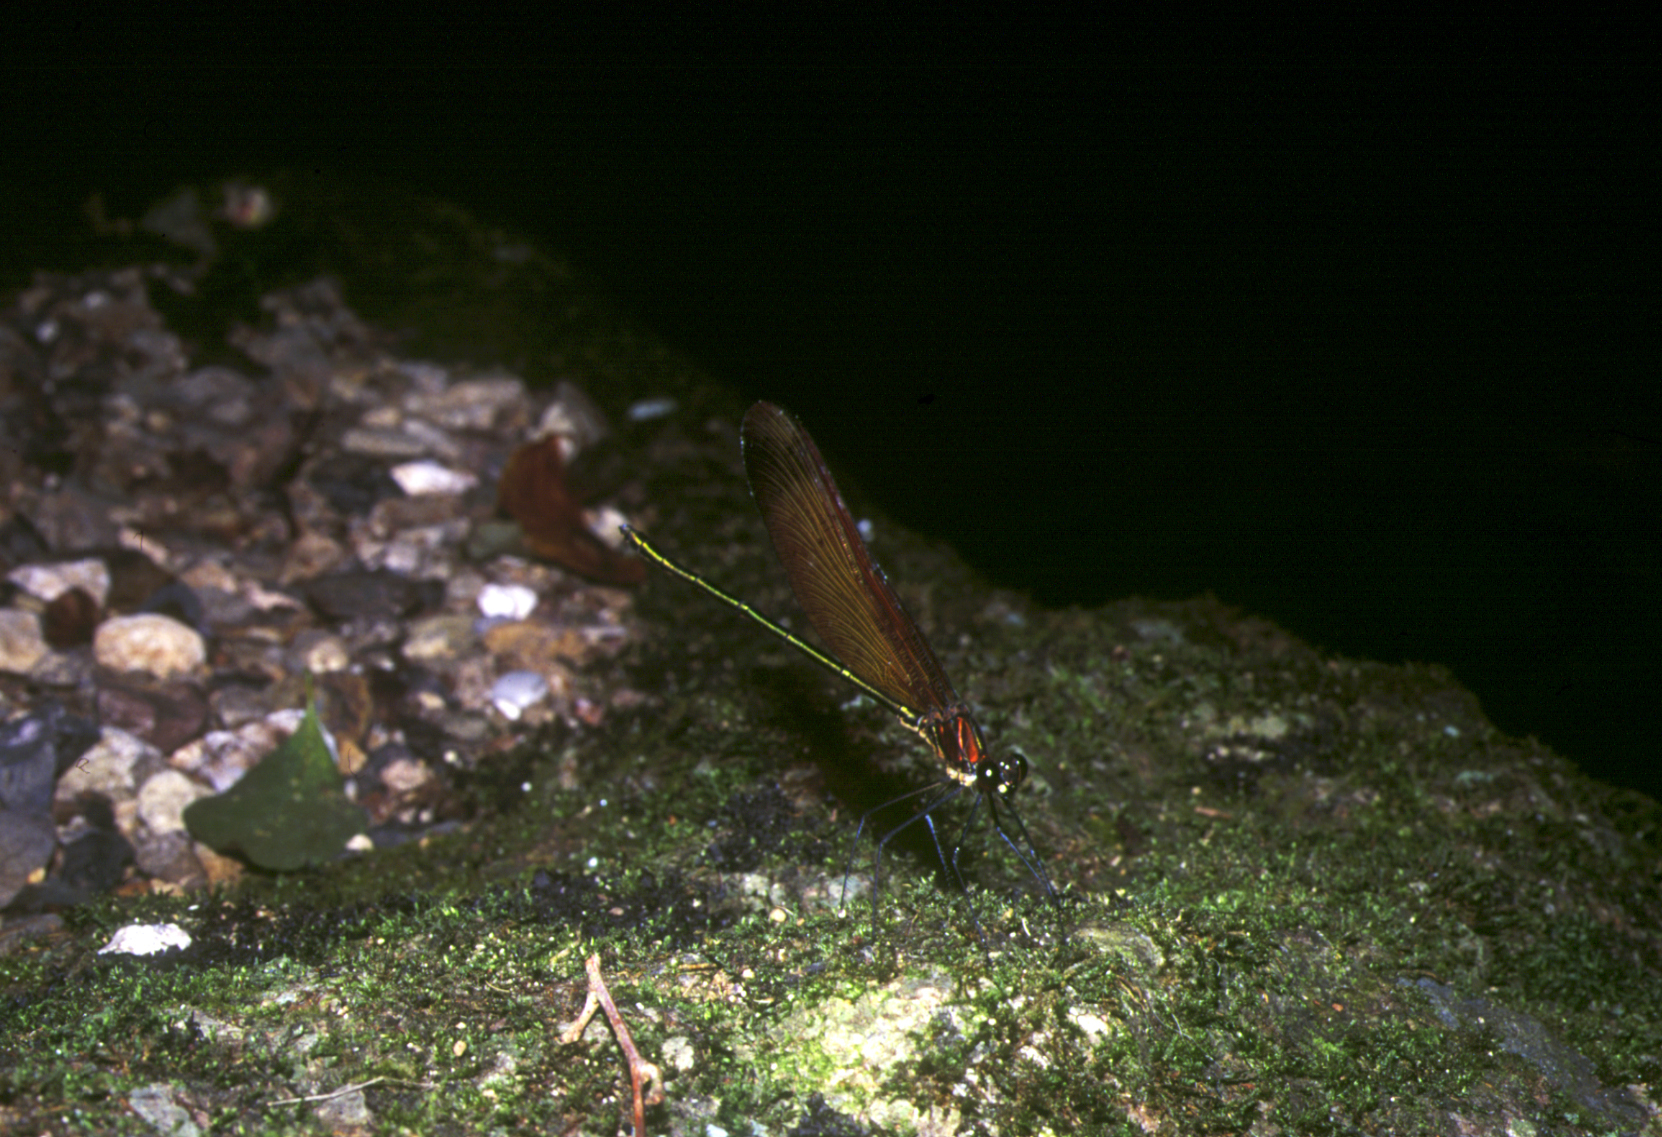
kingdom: Animalia
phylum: Arthropoda
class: Insecta
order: Odonata
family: Calopterygidae
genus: Calopteryx
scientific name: Calopteryx cornelia
